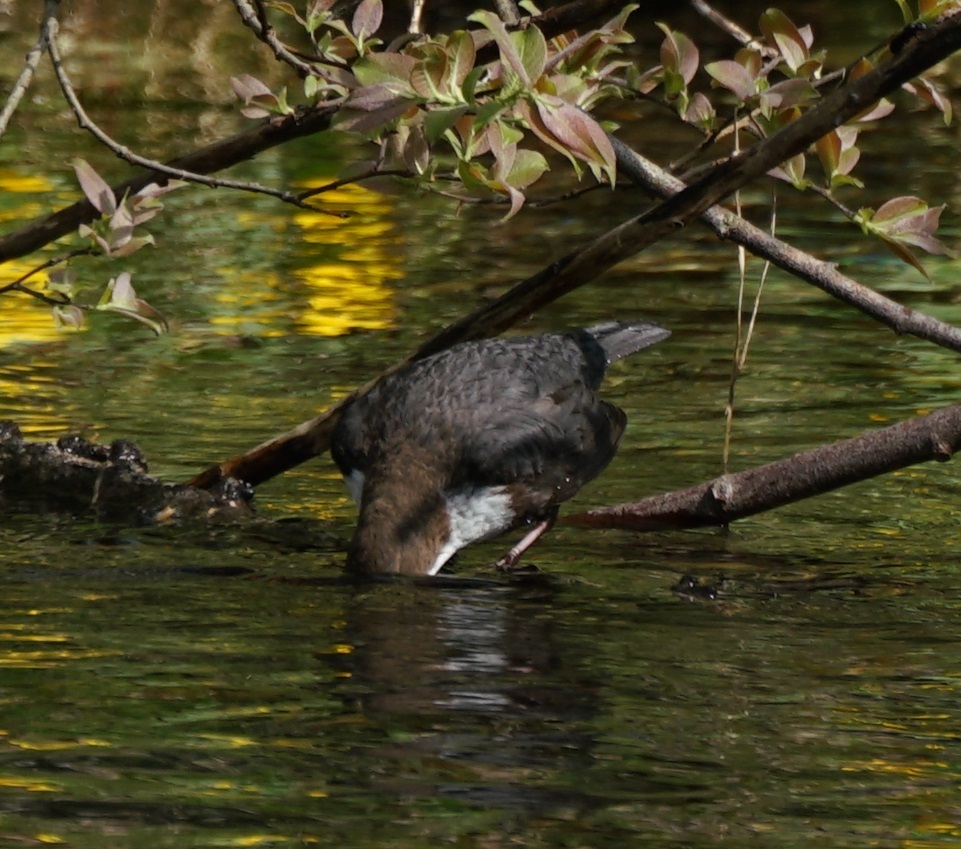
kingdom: Animalia
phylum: Chordata
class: Aves
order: Passeriformes
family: Cinclidae
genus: Cinclus
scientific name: Cinclus cinclus
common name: White-throated dipper
